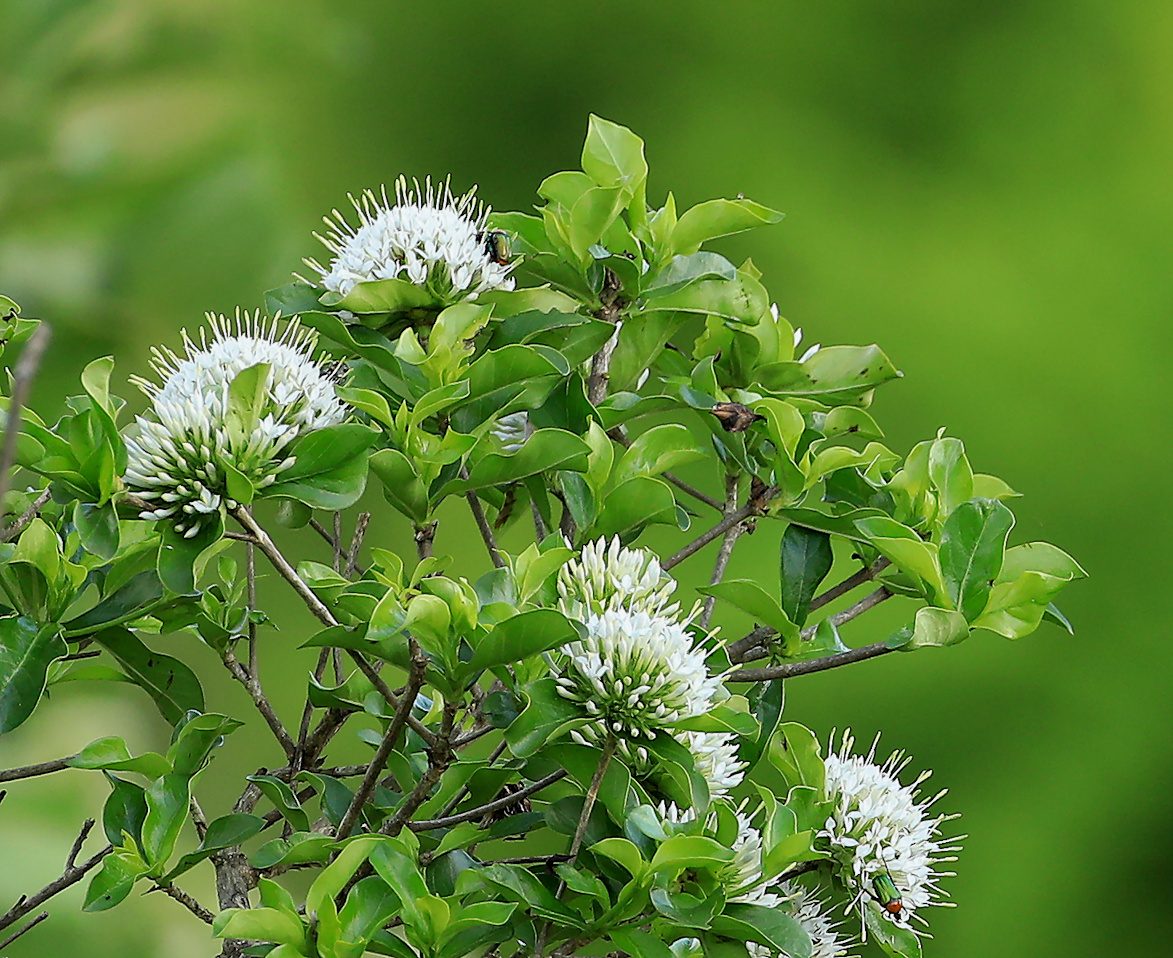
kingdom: Plantae
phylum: Tracheophyta
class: Magnoliopsida
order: Gentianales
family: Rubiaceae
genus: Pavetta
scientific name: Pavetta gardeniifolia
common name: Common brides-bush
